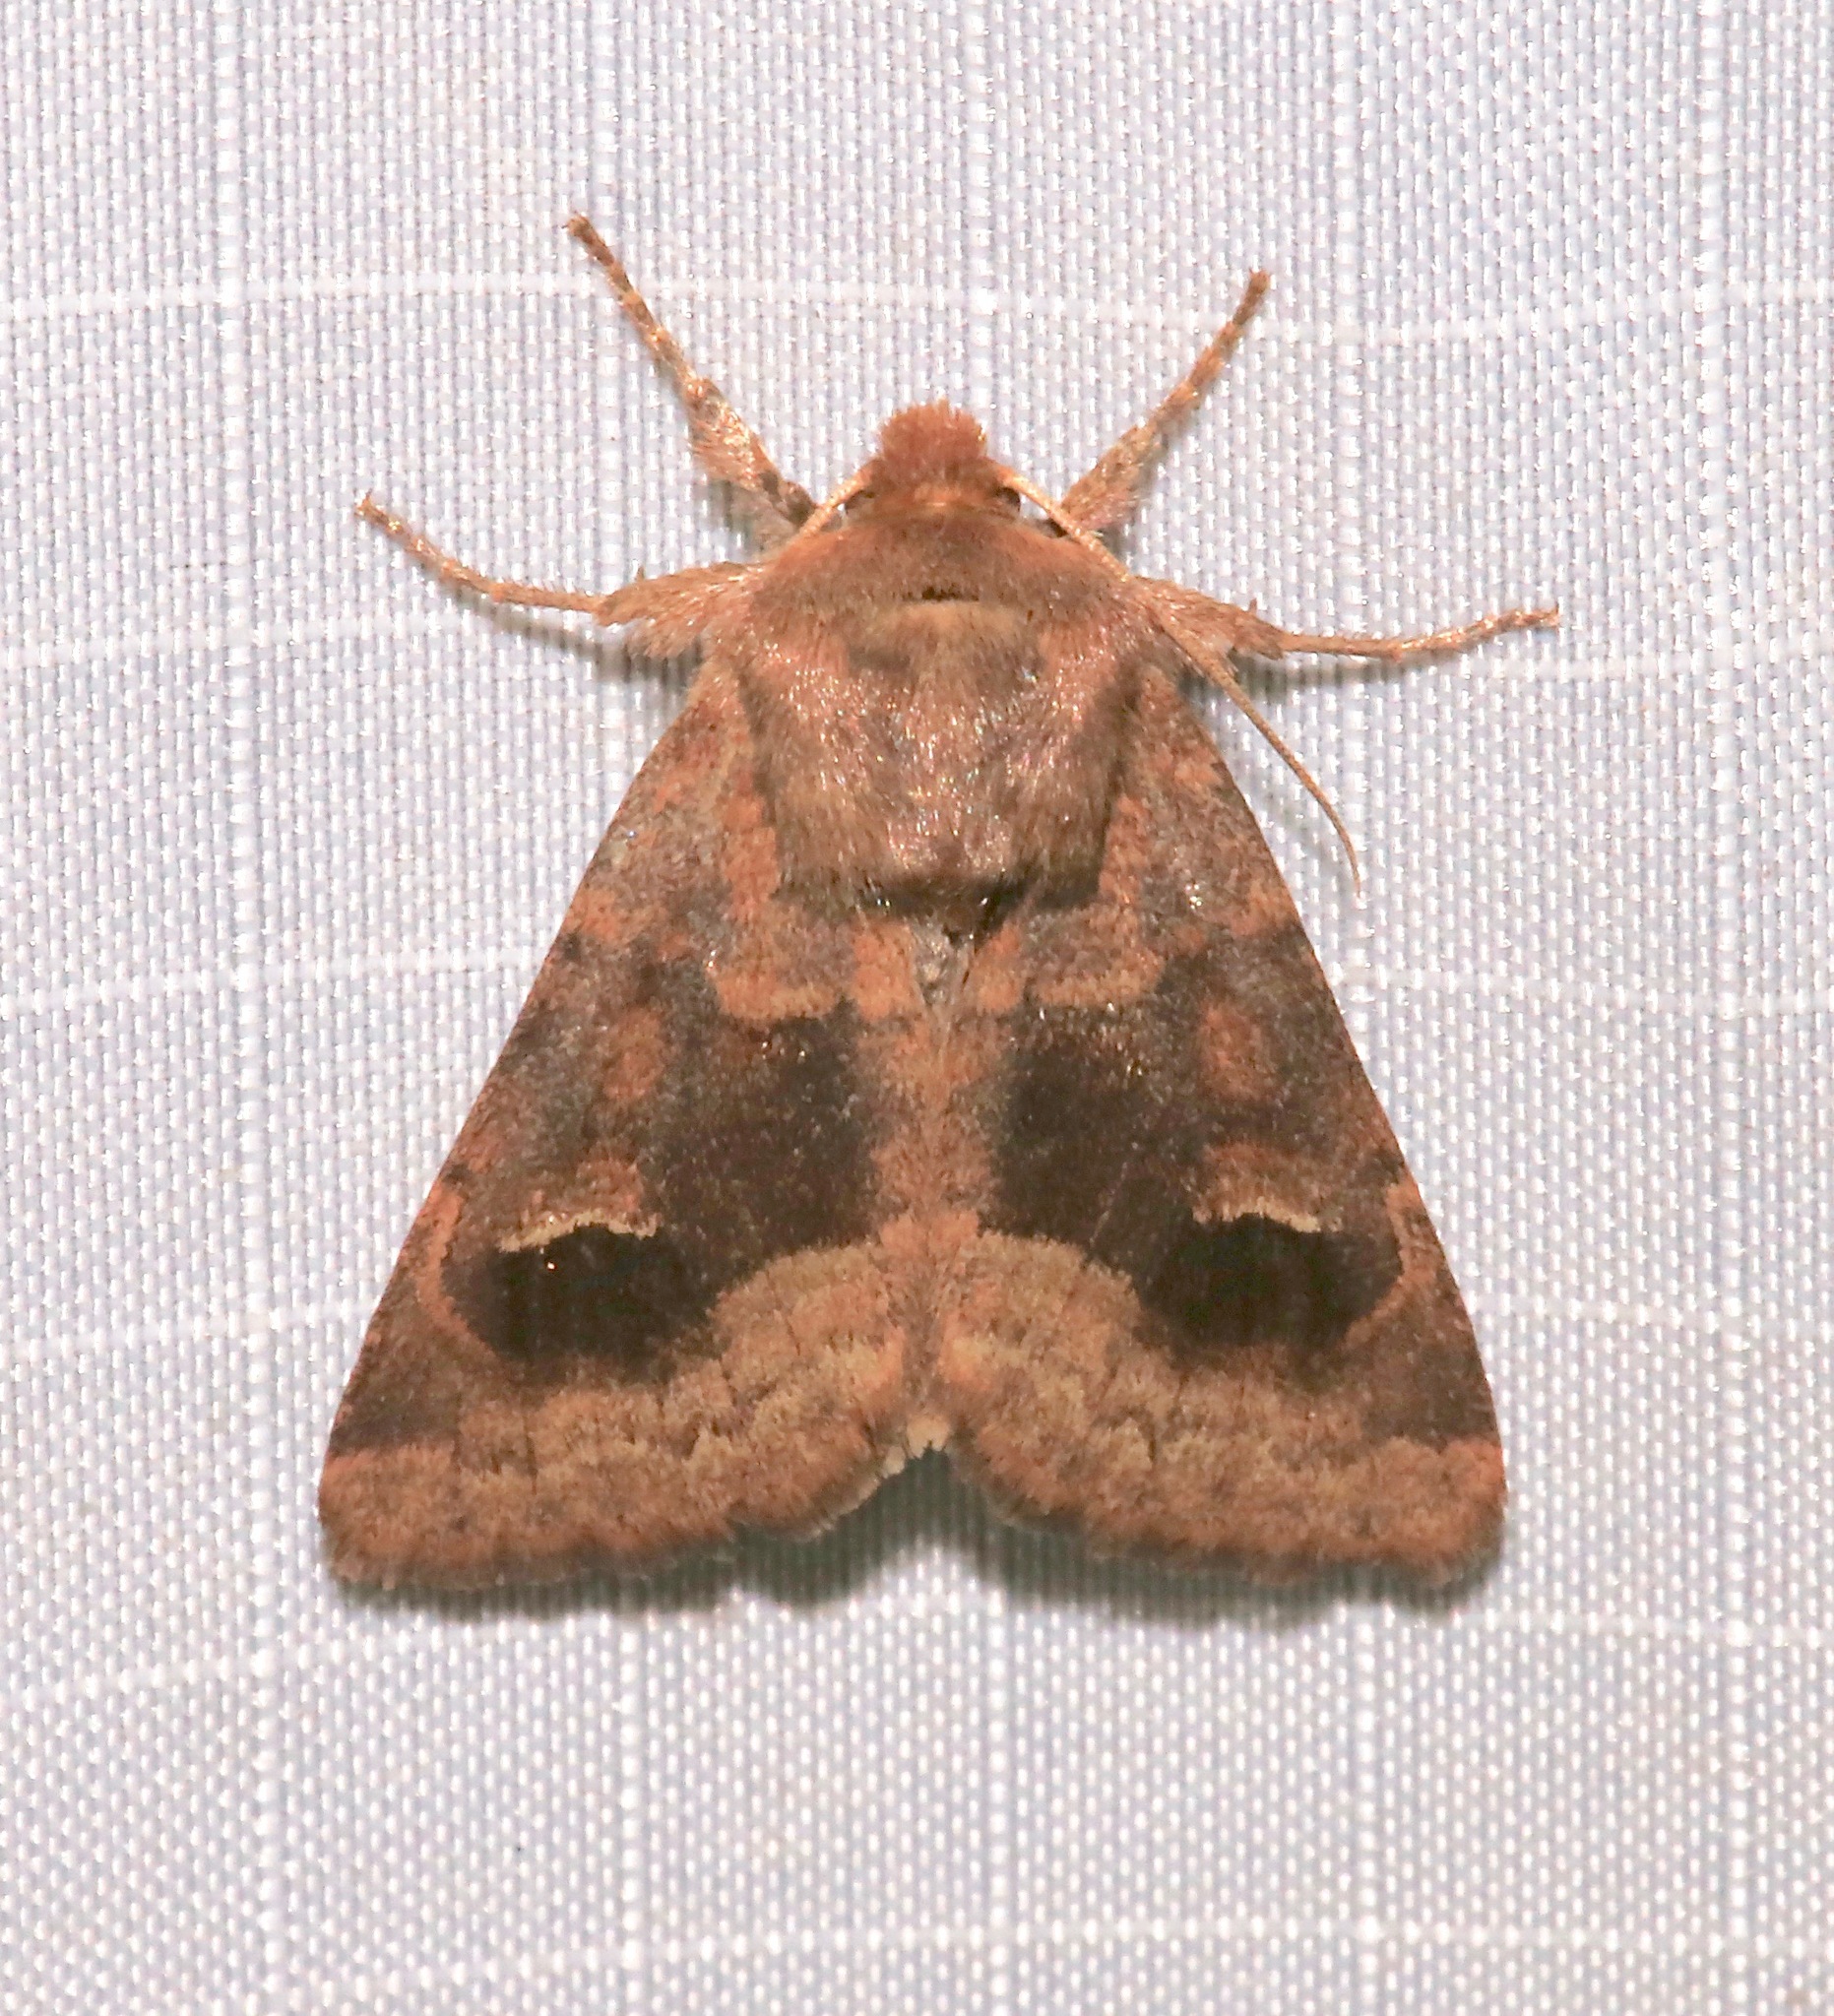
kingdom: Animalia
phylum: Arthropoda
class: Insecta
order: Lepidoptera
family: Noctuidae
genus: Nephelodes
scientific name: Nephelodes minians
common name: Bronzed cutworm
